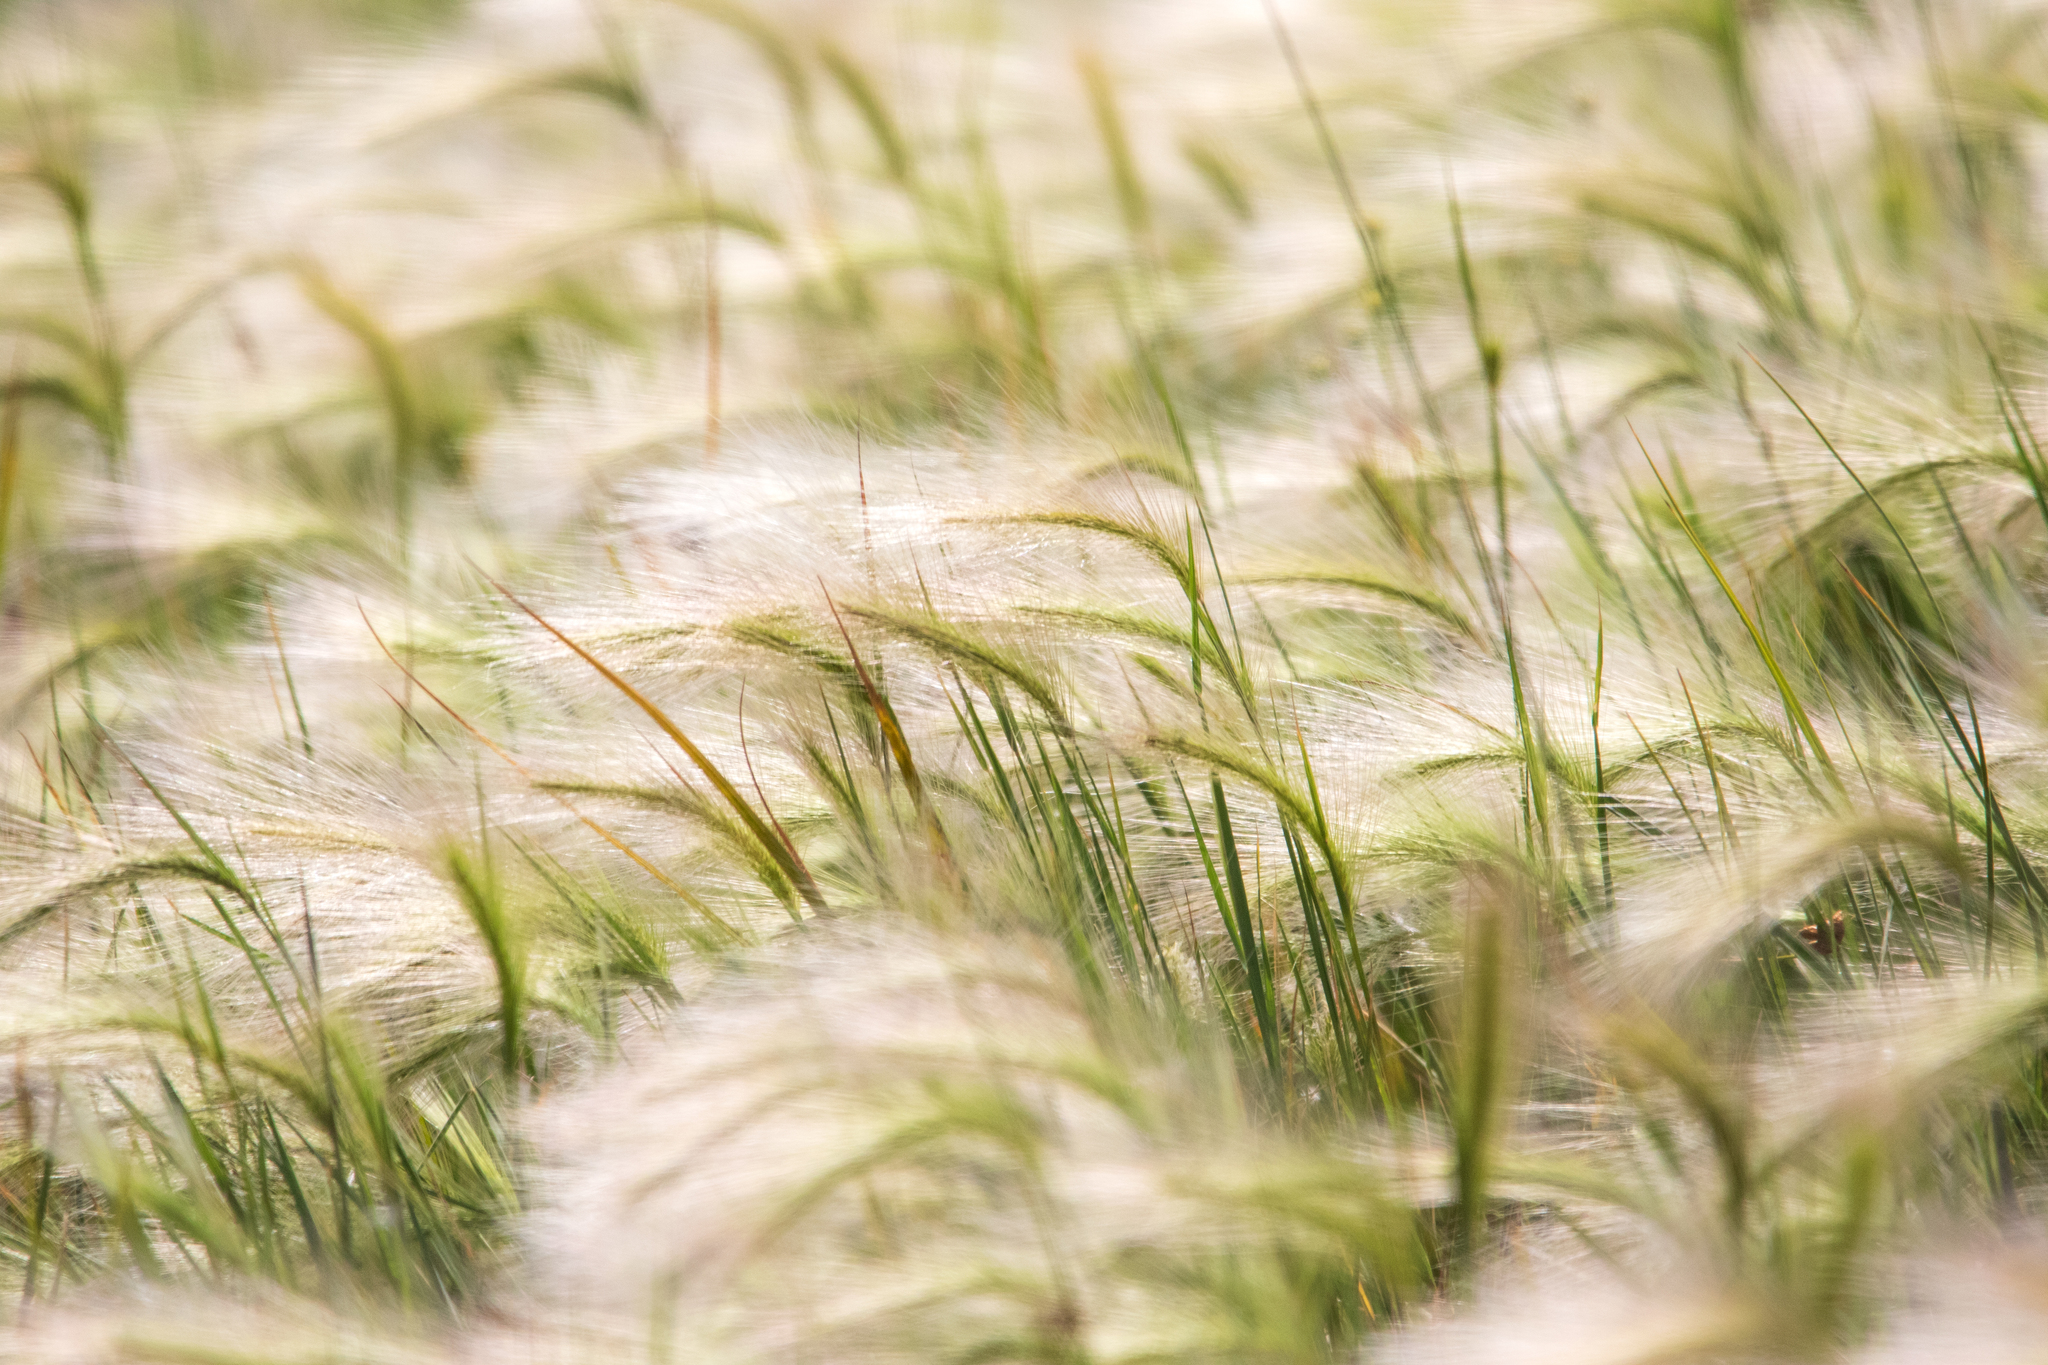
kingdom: Plantae
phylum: Tracheophyta
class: Liliopsida
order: Poales
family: Poaceae
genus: Hordeum
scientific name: Hordeum jubatum
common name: Foxtail barley
